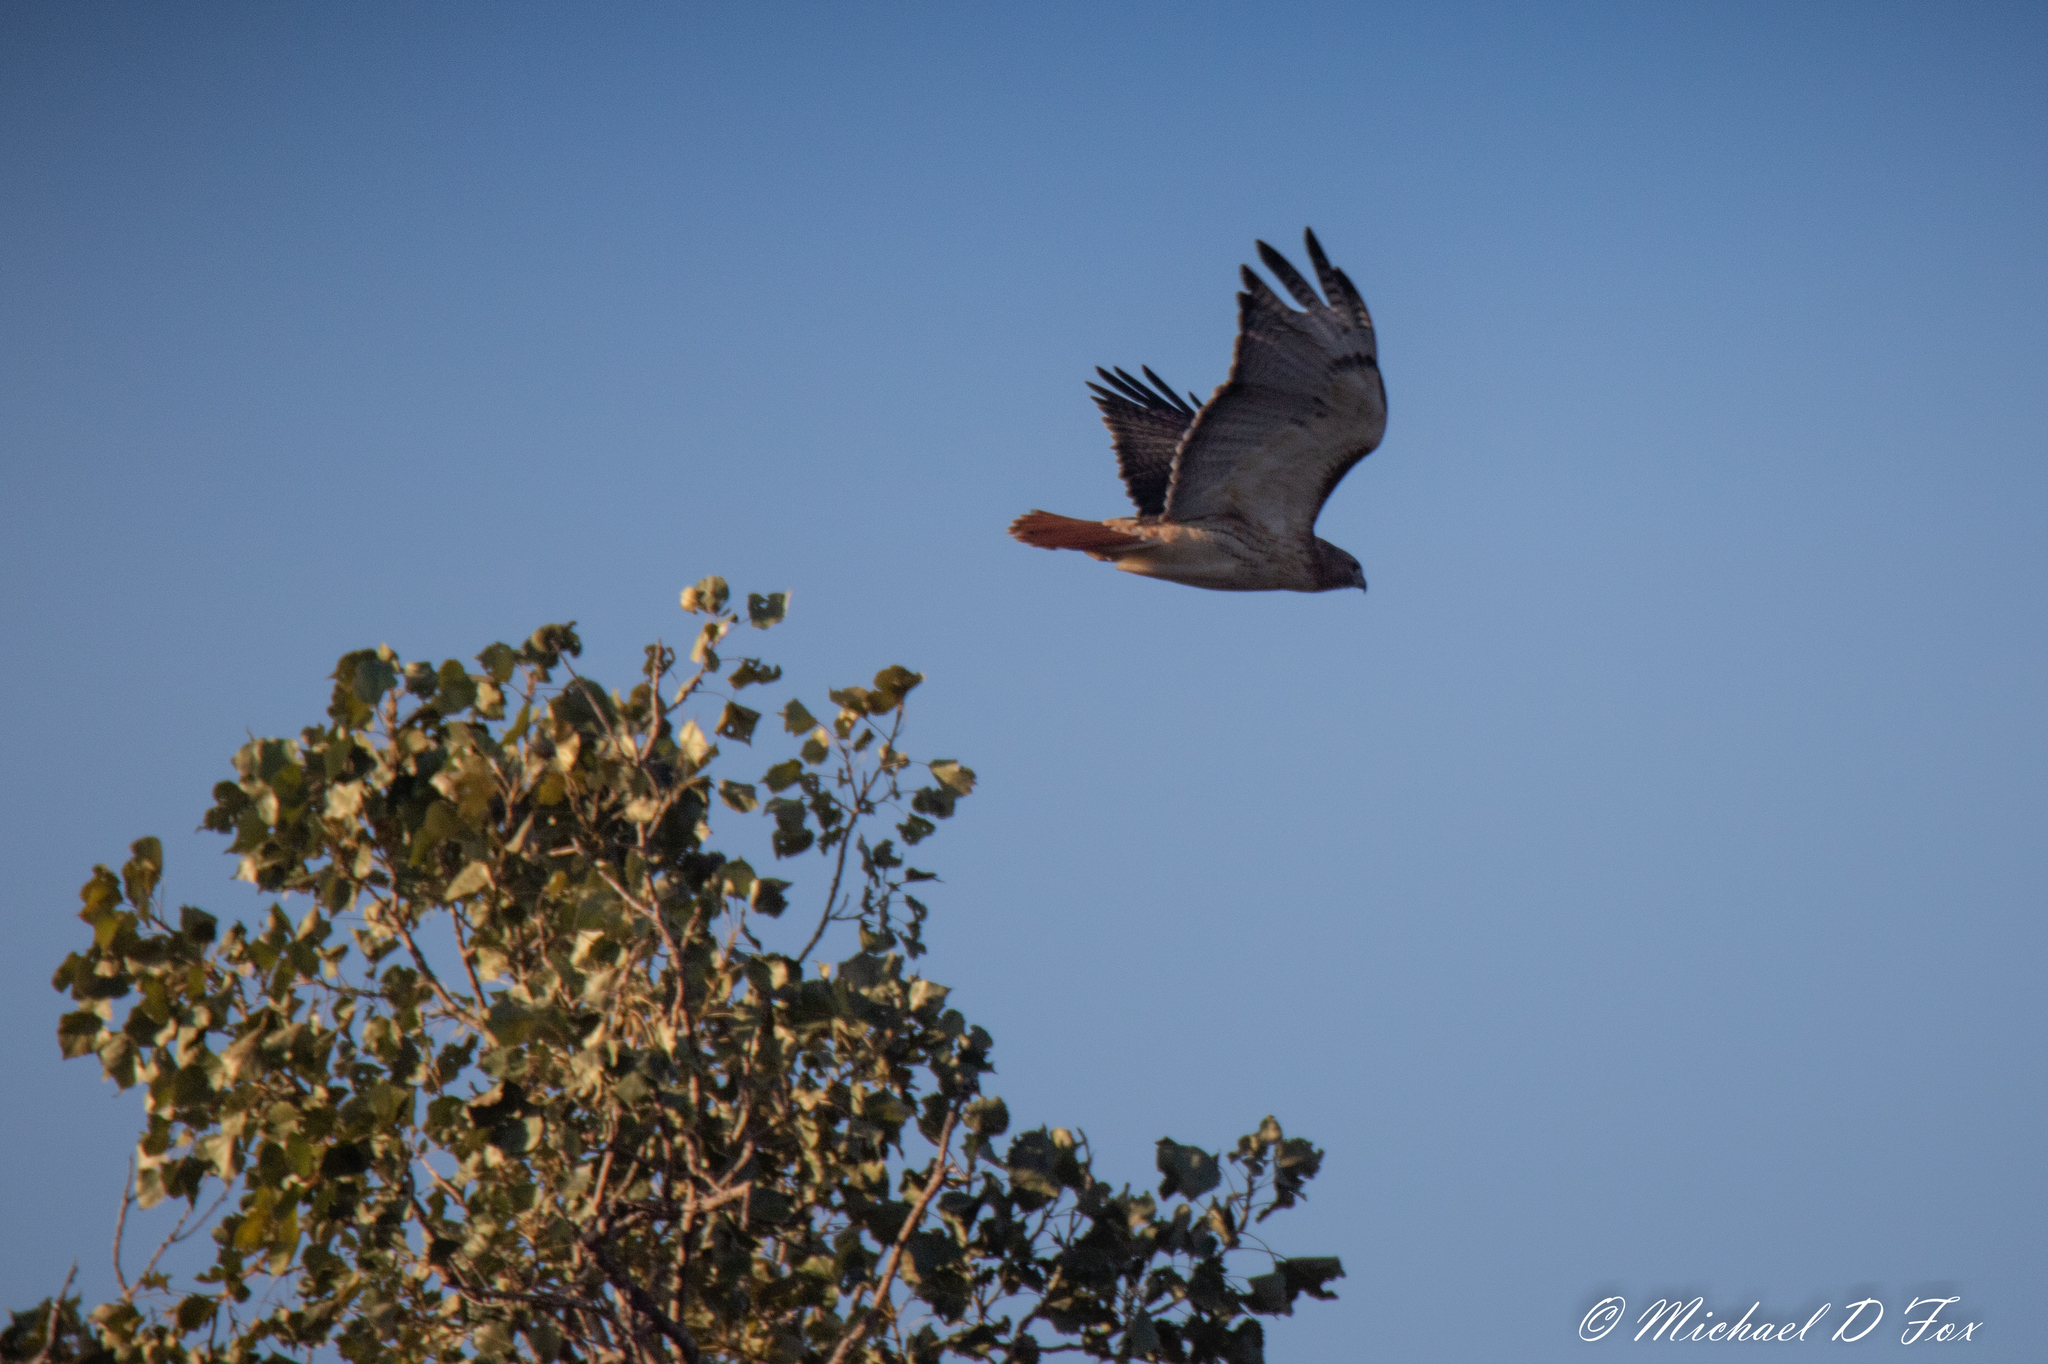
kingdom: Animalia
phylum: Chordata
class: Aves
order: Accipitriformes
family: Accipitridae
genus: Buteo
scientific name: Buteo jamaicensis
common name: Red-tailed hawk
